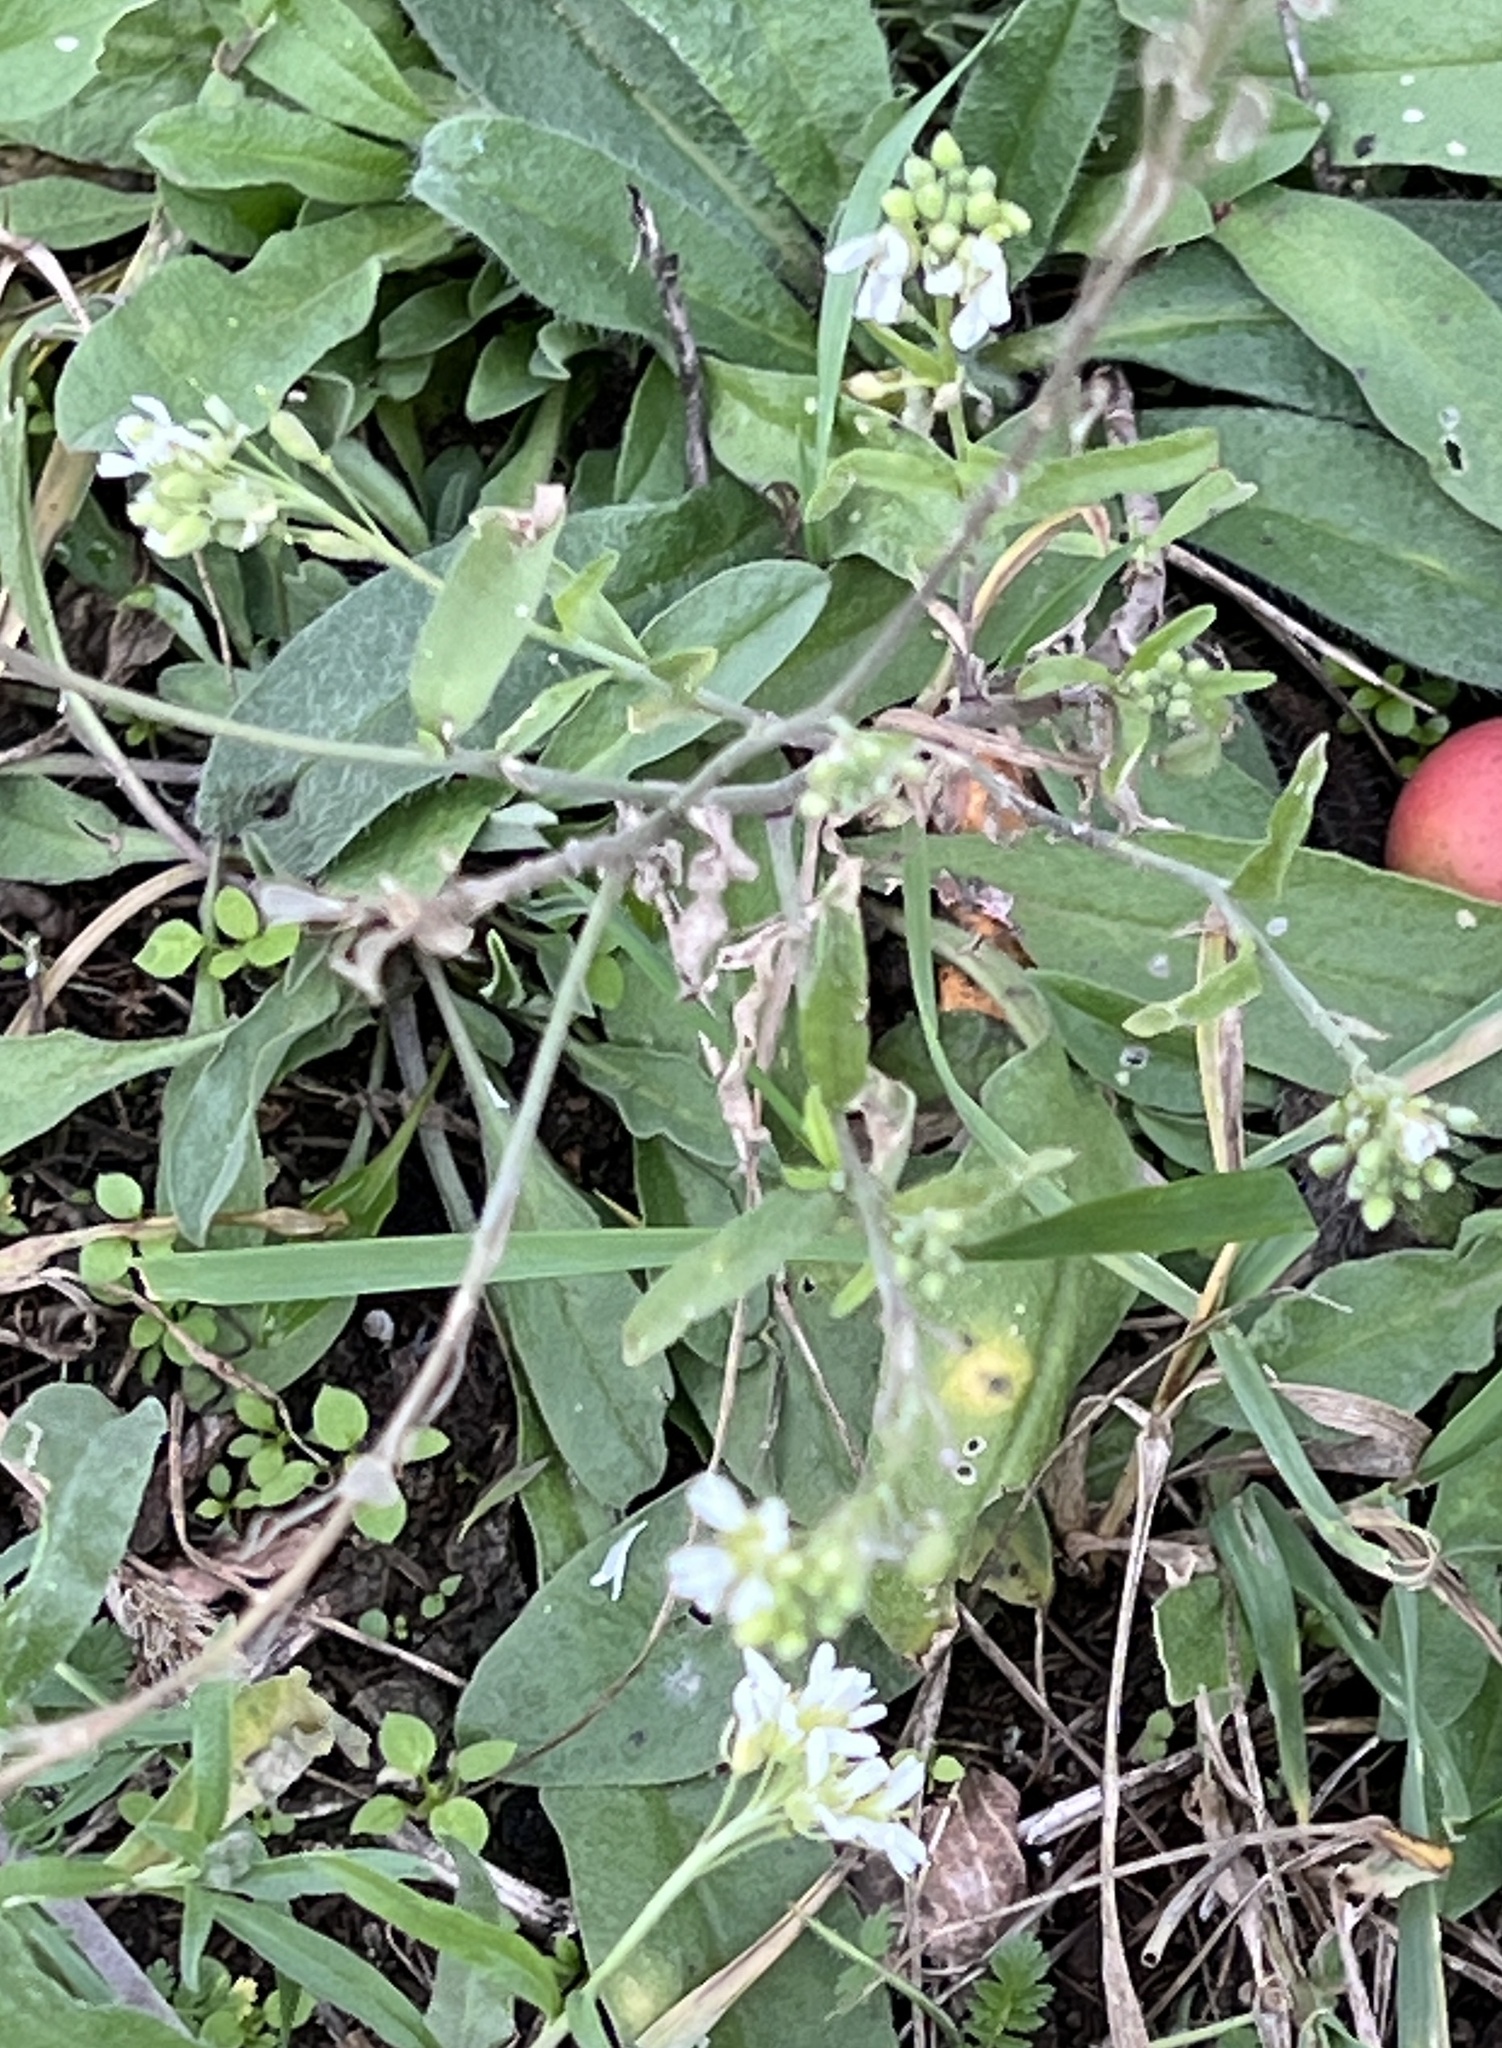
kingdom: Plantae
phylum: Tracheophyta
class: Magnoliopsida
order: Brassicales
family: Brassicaceae
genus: Berteroa
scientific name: Berteroa incana
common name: Hoary alison
